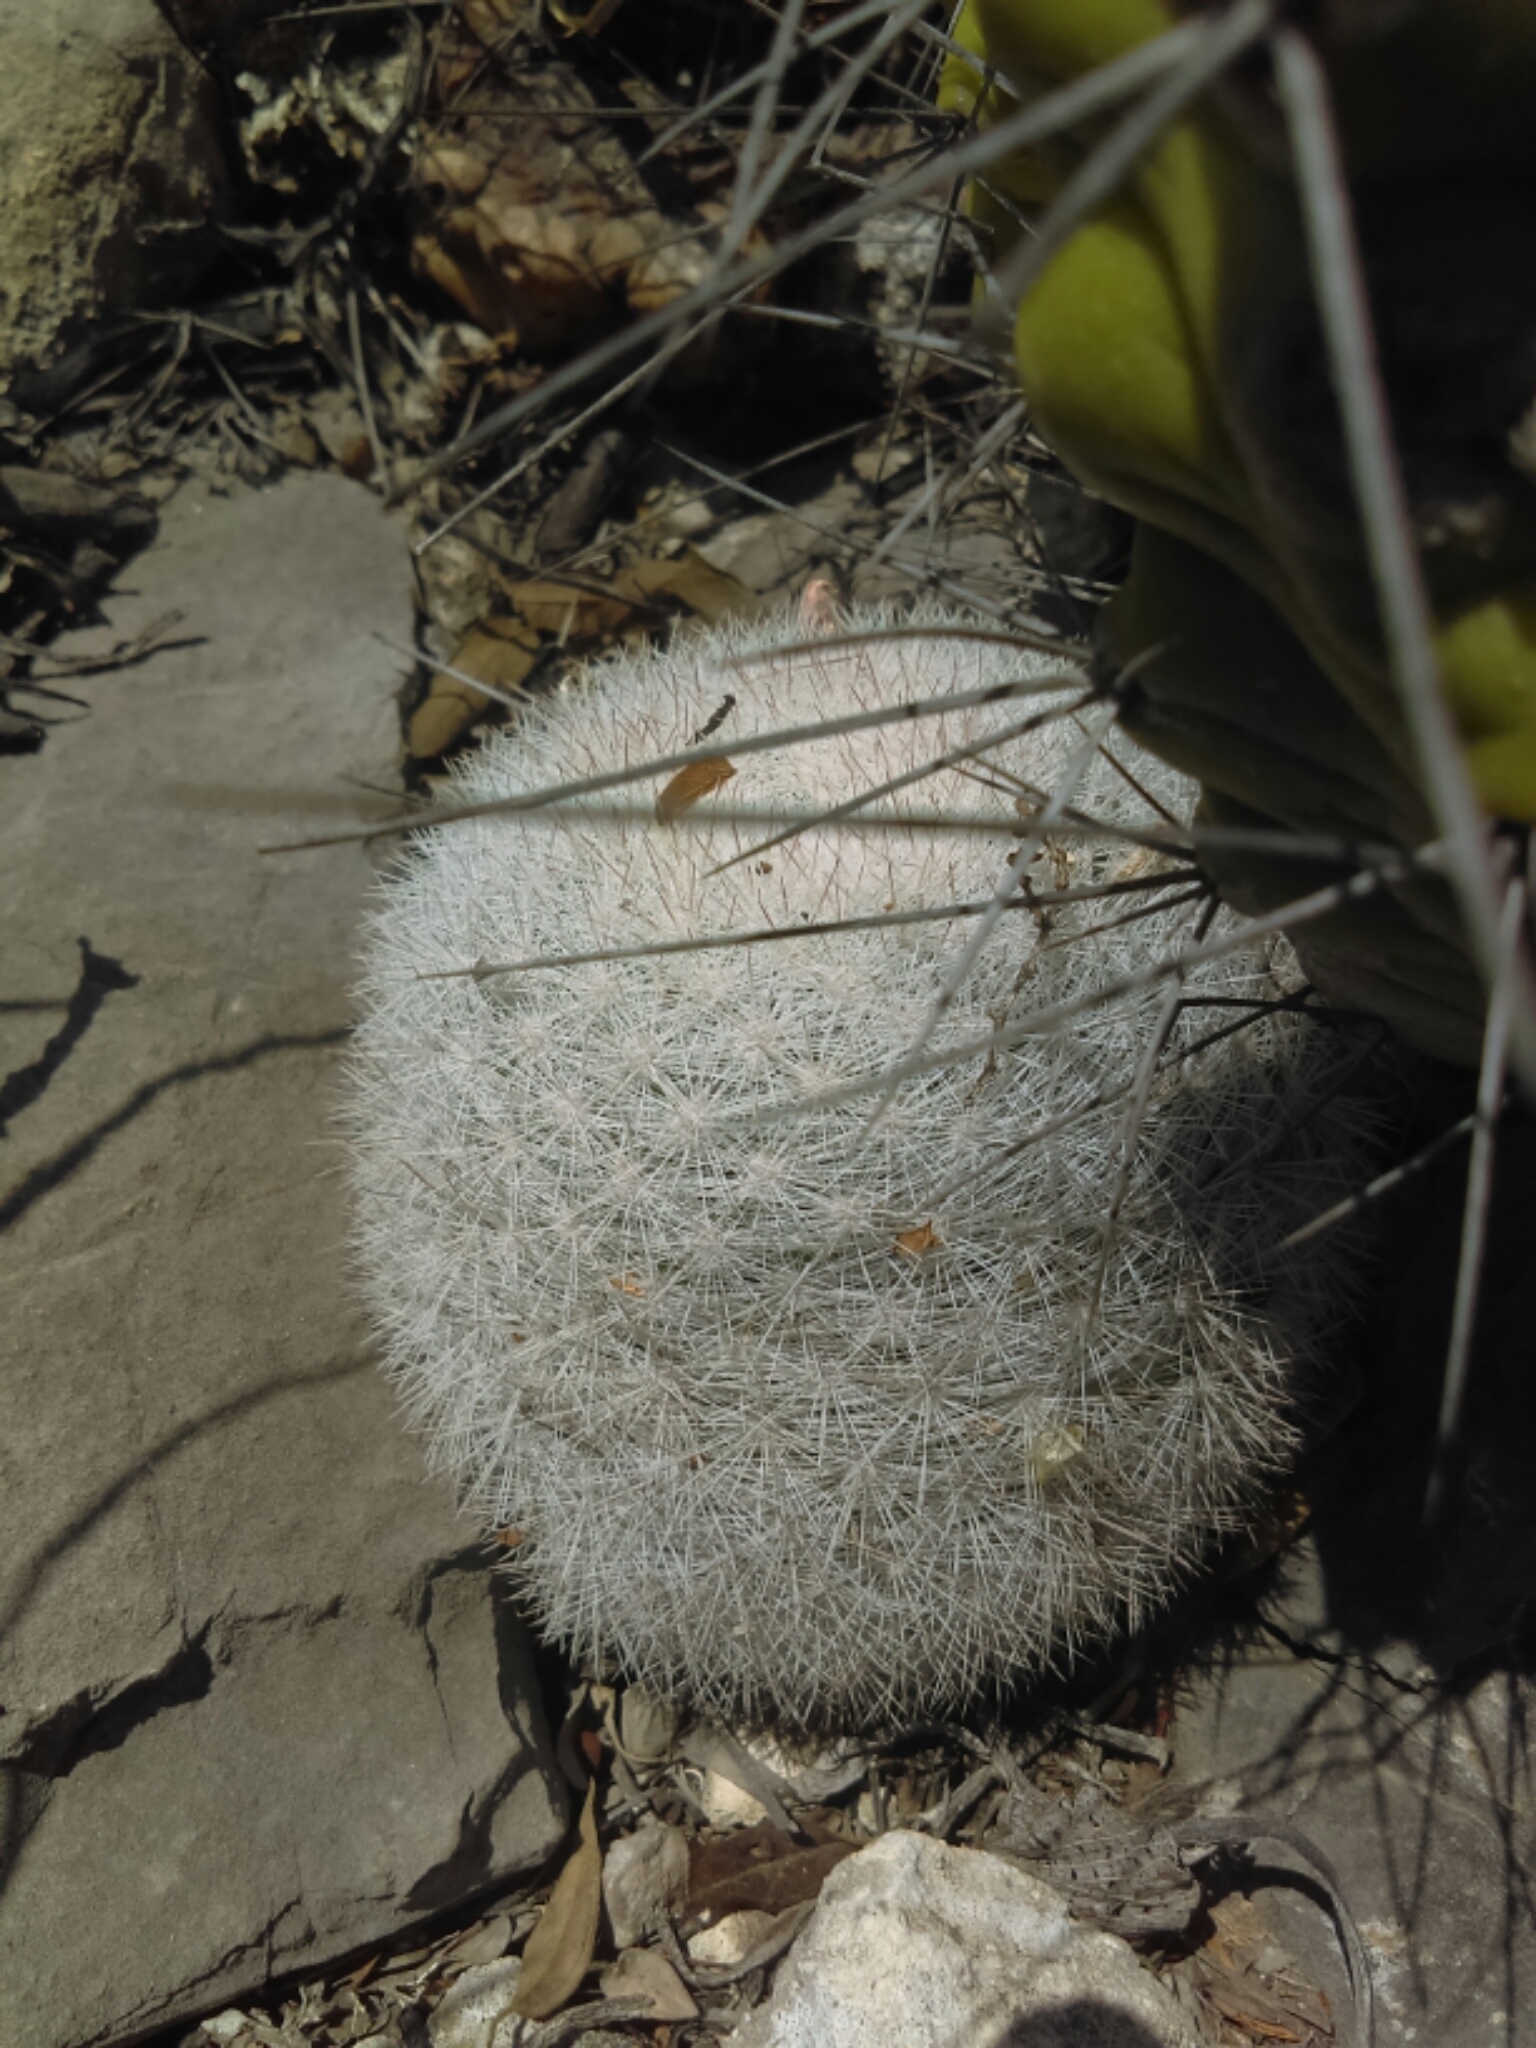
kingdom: Plantae
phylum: Tracheophyta
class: Magnoliopsida
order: Caryophyllales
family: Cactaceae
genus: Mammillaria
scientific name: Mammillaria candida
